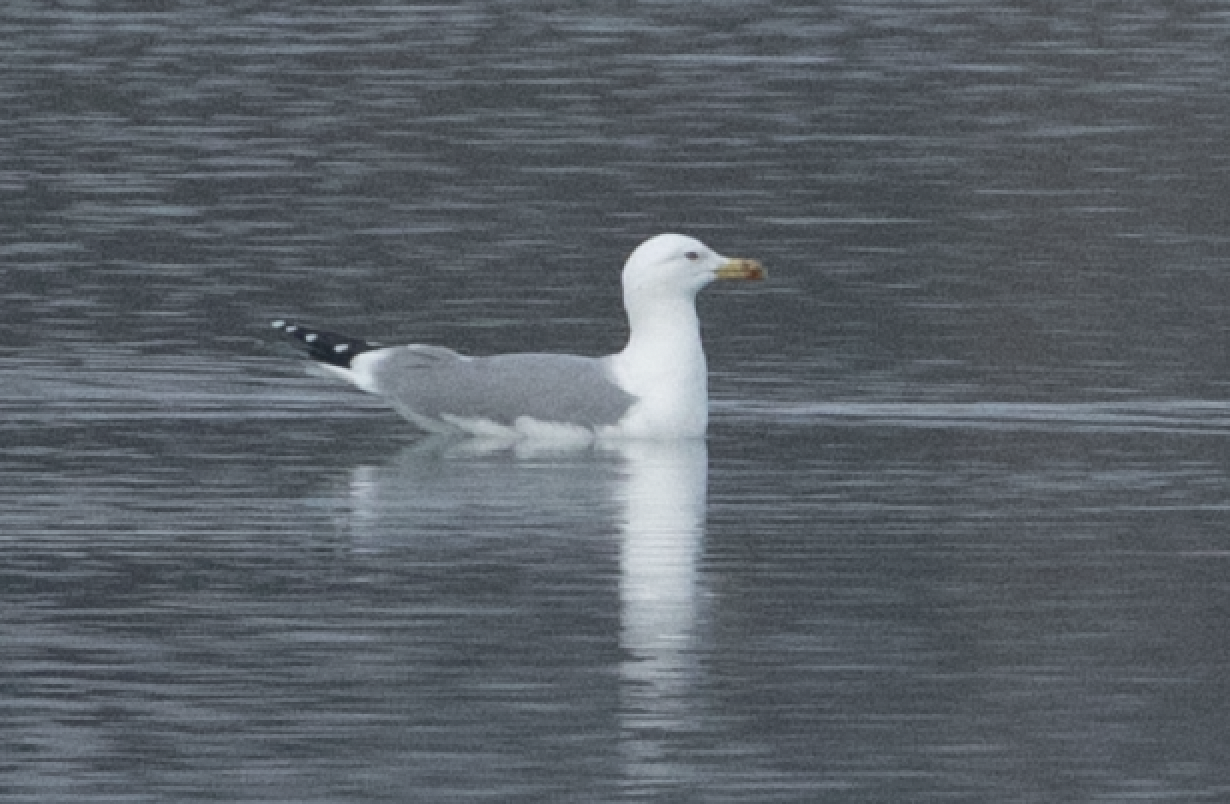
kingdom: Animalia
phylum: Chordata
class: Aves
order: Charadriiformes
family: Laridae
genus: Larus
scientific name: Larus michahellis
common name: Yellow-legged gull
